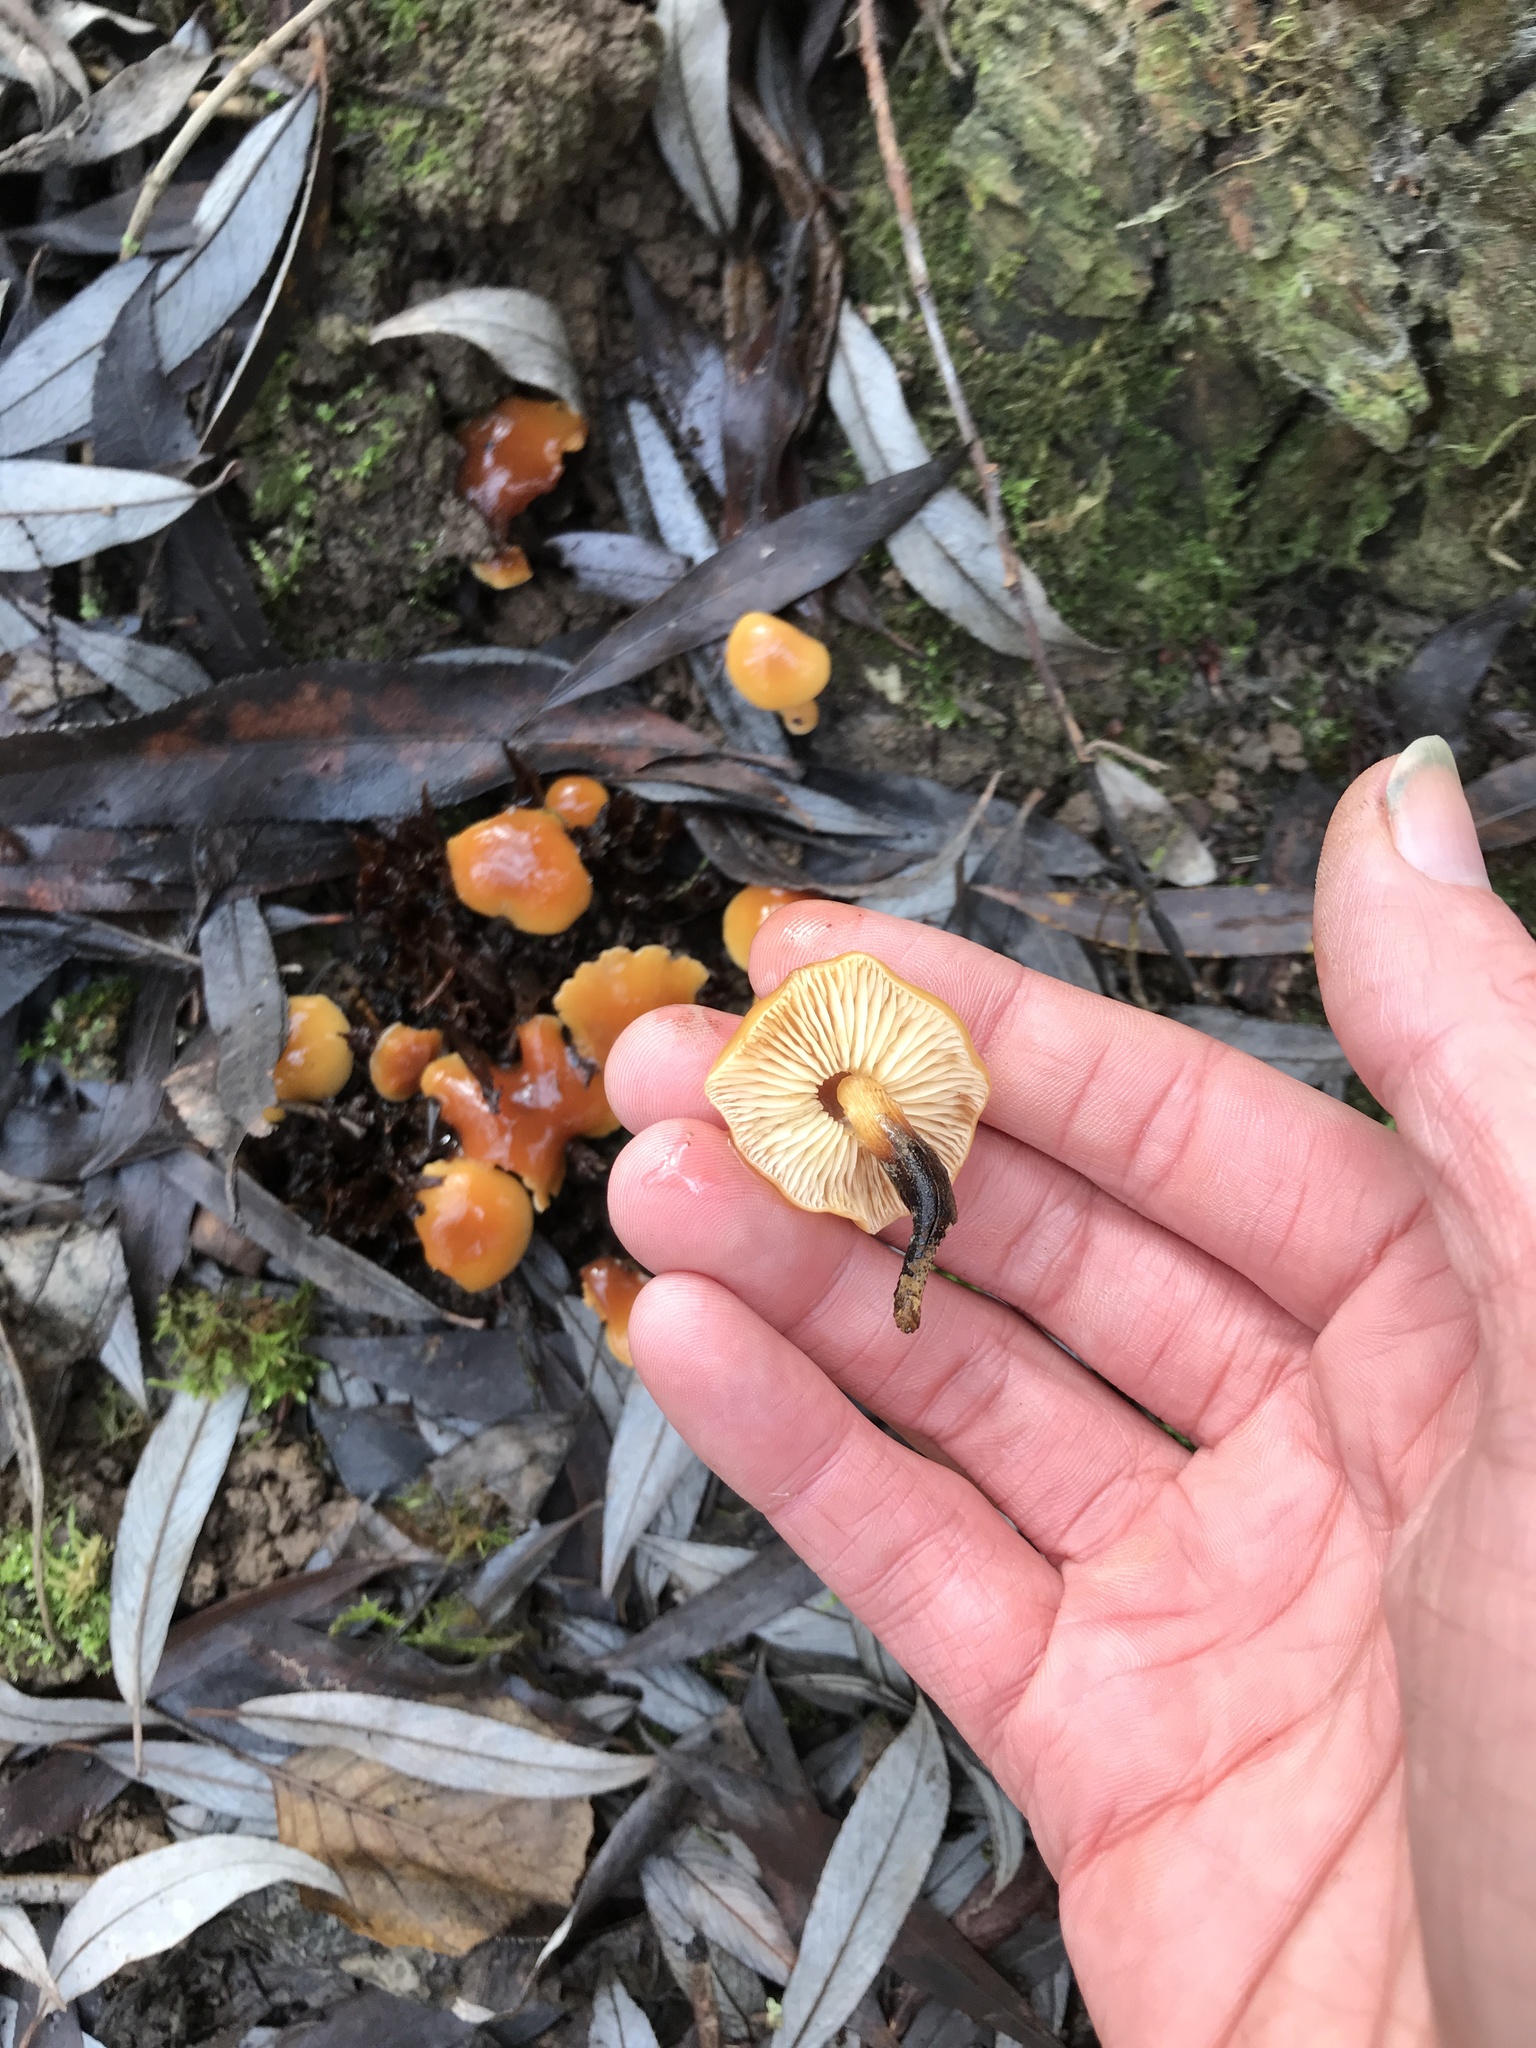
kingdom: Fungi
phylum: Basidiomycota
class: Agaricomycetes
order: Agaricales
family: Physalacriaceae
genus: Flammulina
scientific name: Flammulina
